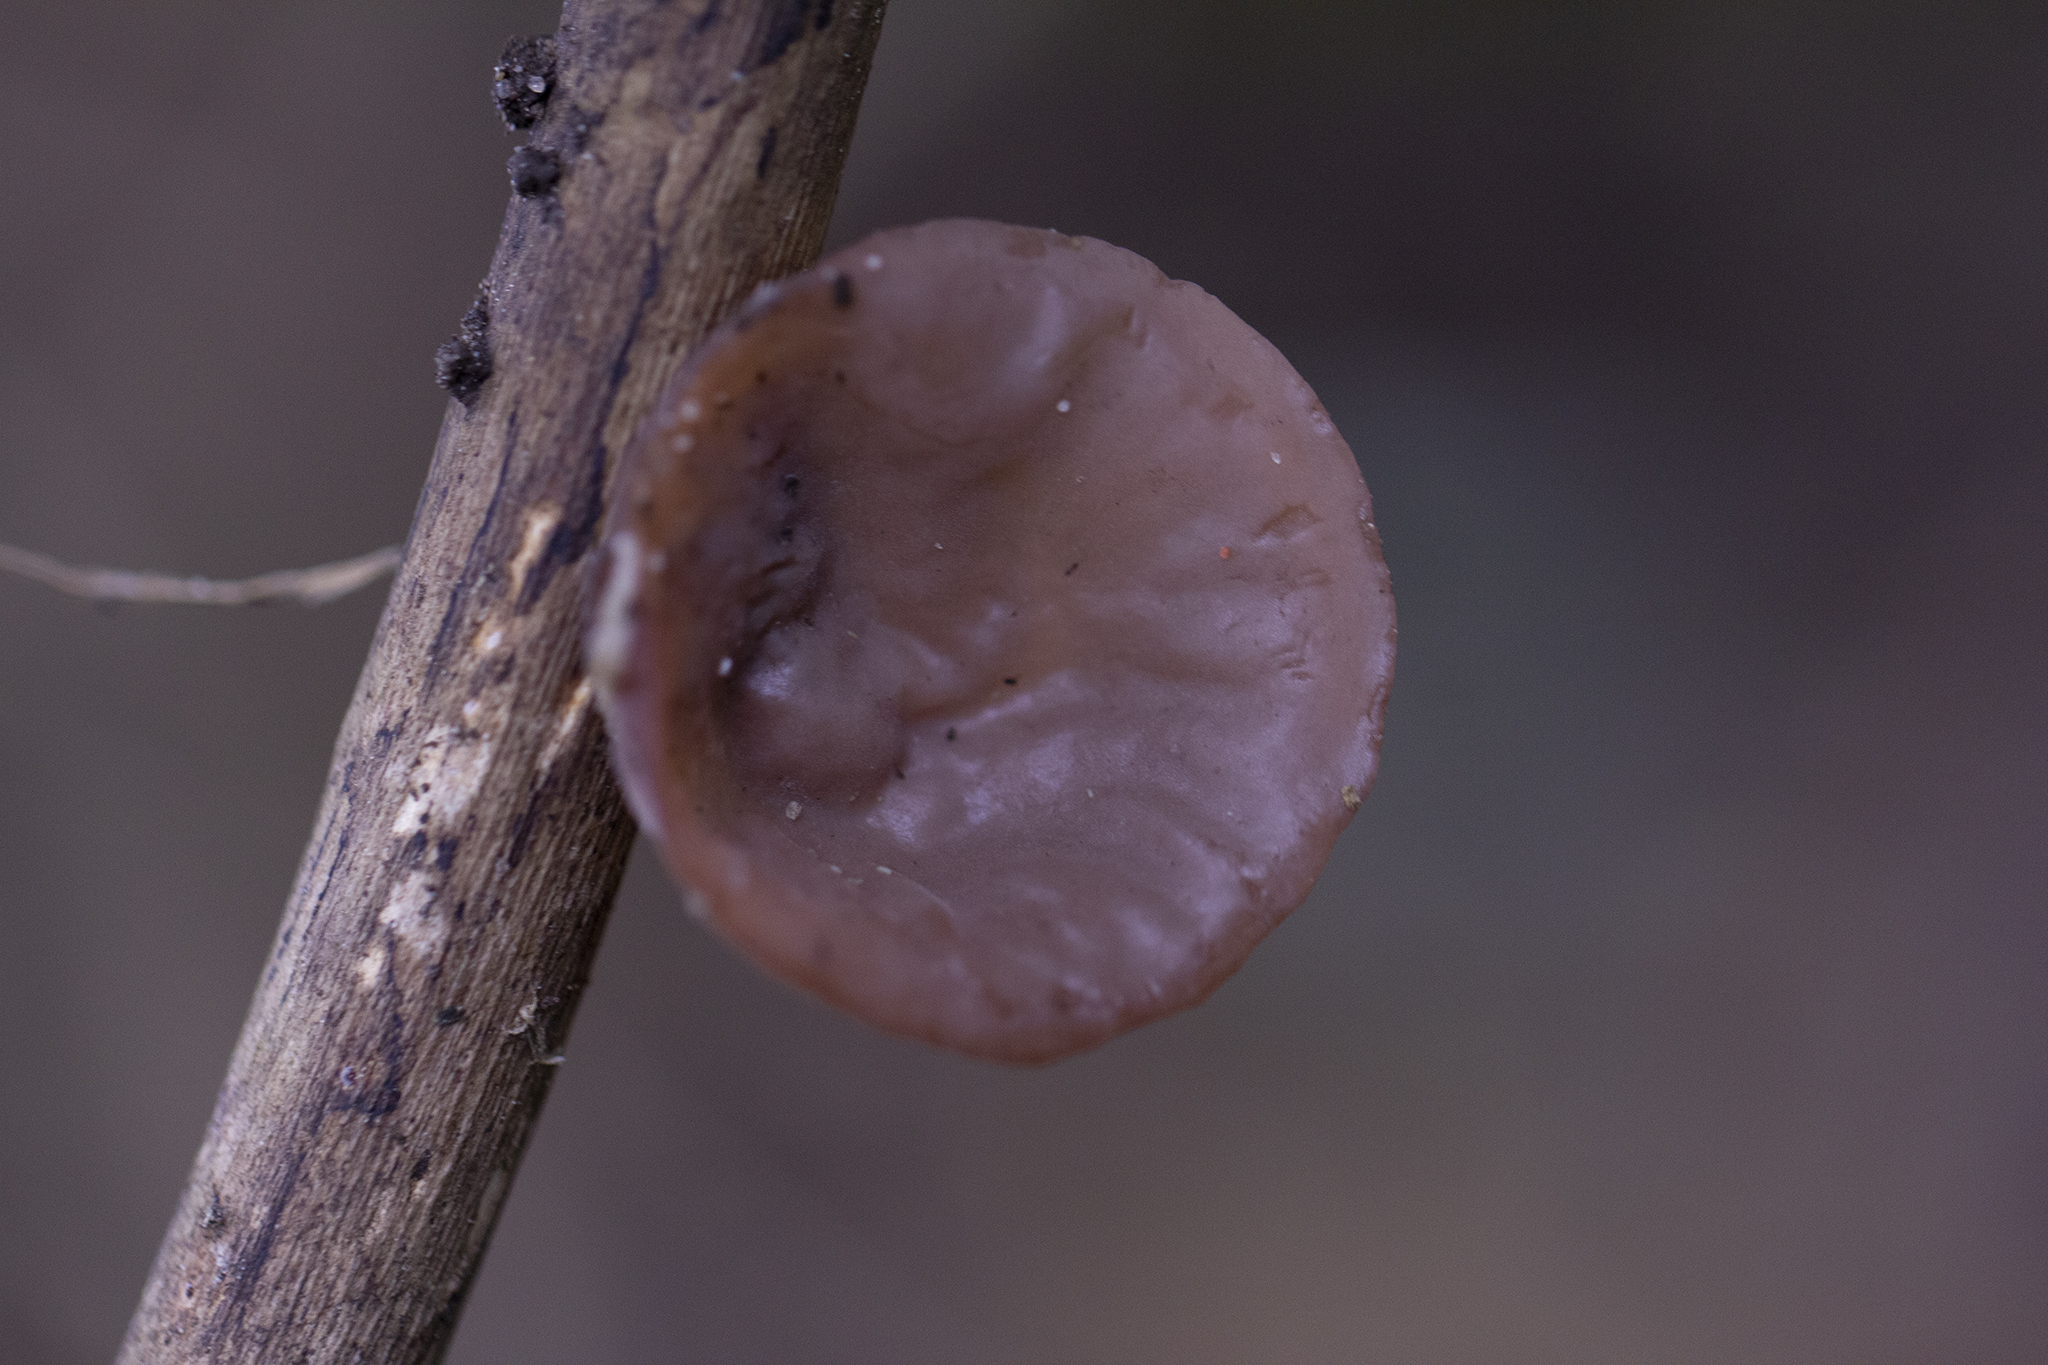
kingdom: Fungi
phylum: Basidiomycota
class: Agaricomycetes
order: Auriculariales
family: Auriculariaceae
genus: Auricularia
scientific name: Auricularia auricula-judae
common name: Jelly ear
